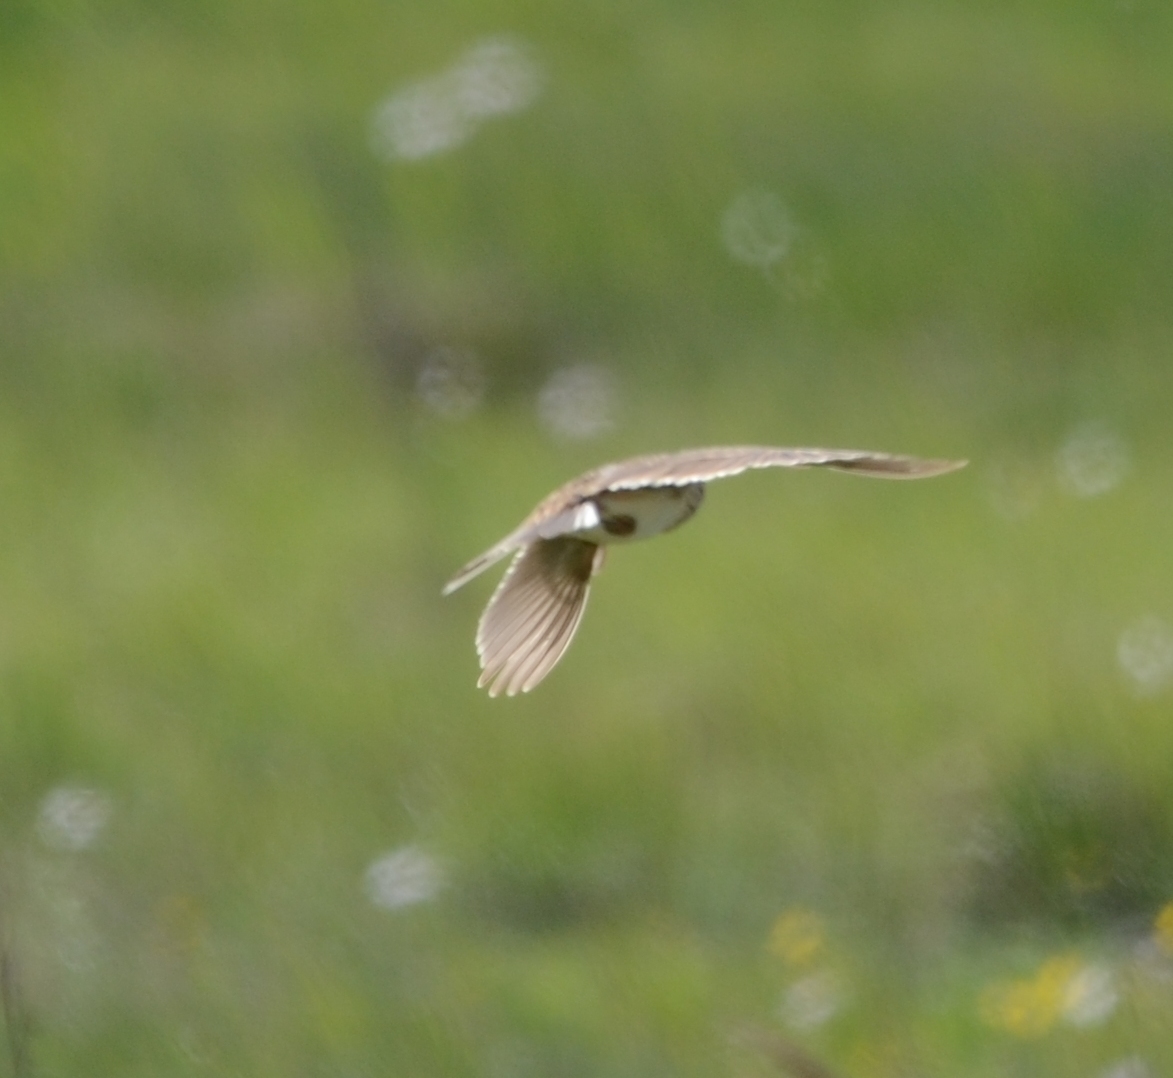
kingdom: Animalia
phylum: Chordata
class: Aves
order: Passeriformes
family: Alaudidae
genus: Alauda
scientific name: Alauda arvensis
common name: Eurasian skylark
